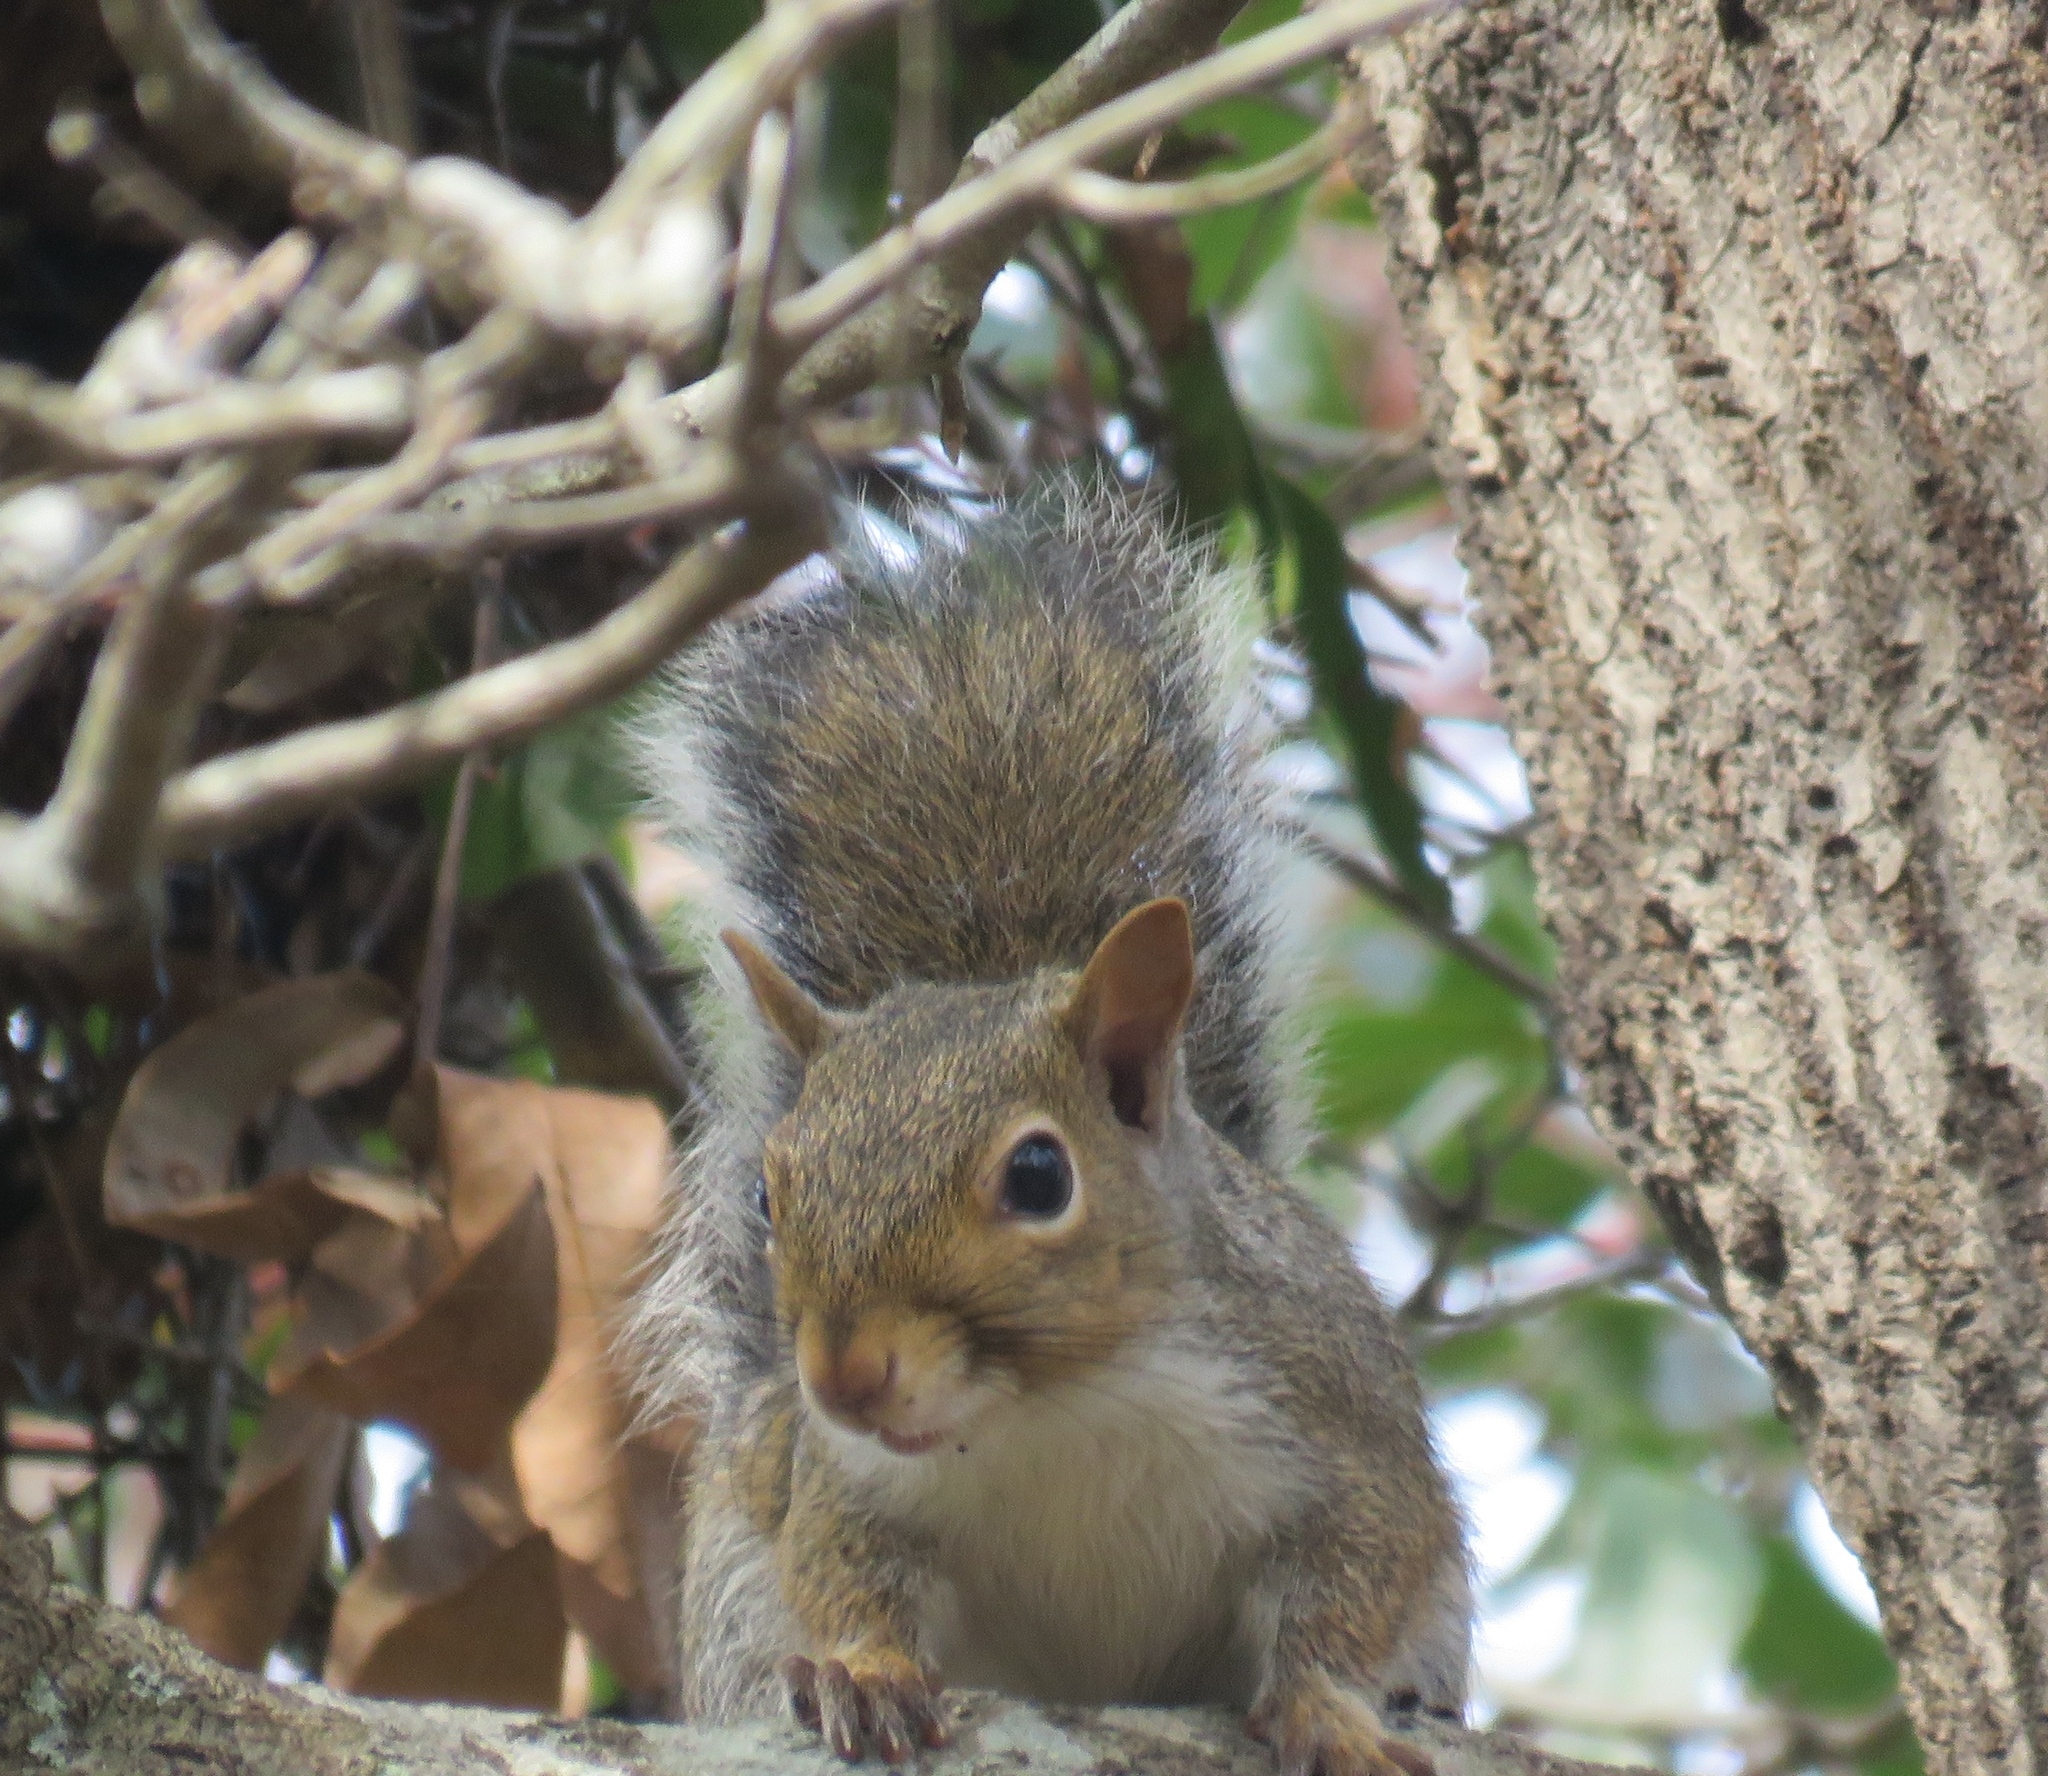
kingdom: Animalia
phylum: Chordata
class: Mammalia
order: Rodentia
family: Sciuridae
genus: Sciurus
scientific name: Sciurus carolinensis
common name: Eastern gray squirrel
